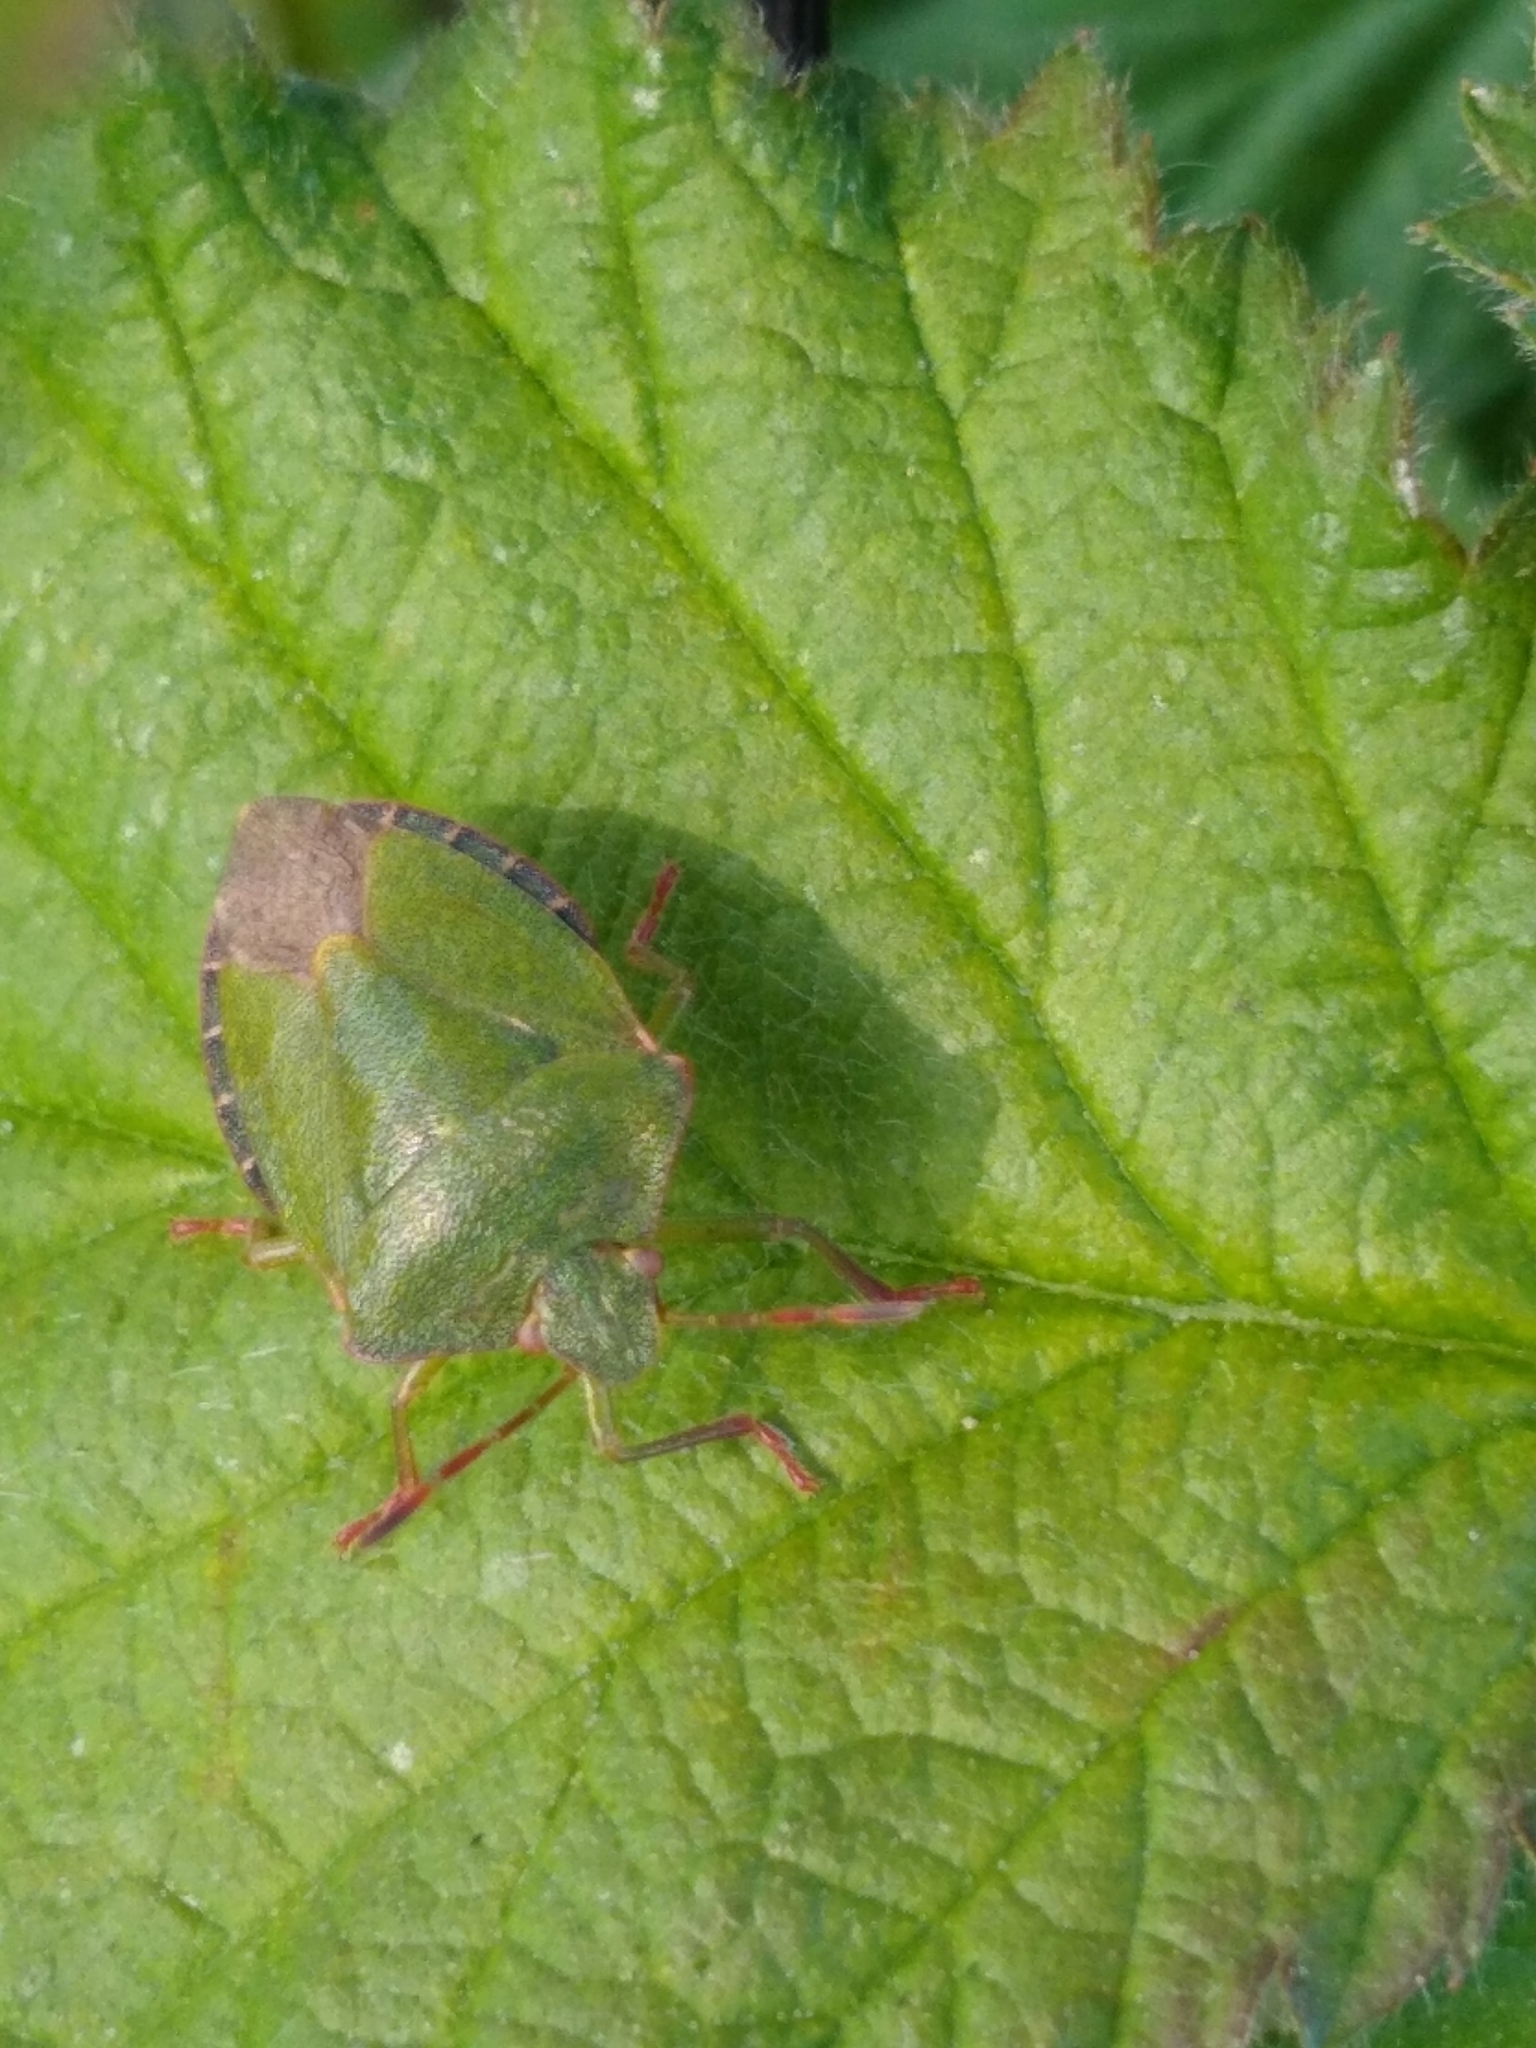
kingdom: Animalia
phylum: Arthropoda
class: Insecta
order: Hemiptera
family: Pentatomidae
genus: Palomena
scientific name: Palomena prasina
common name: Green shieldbug
